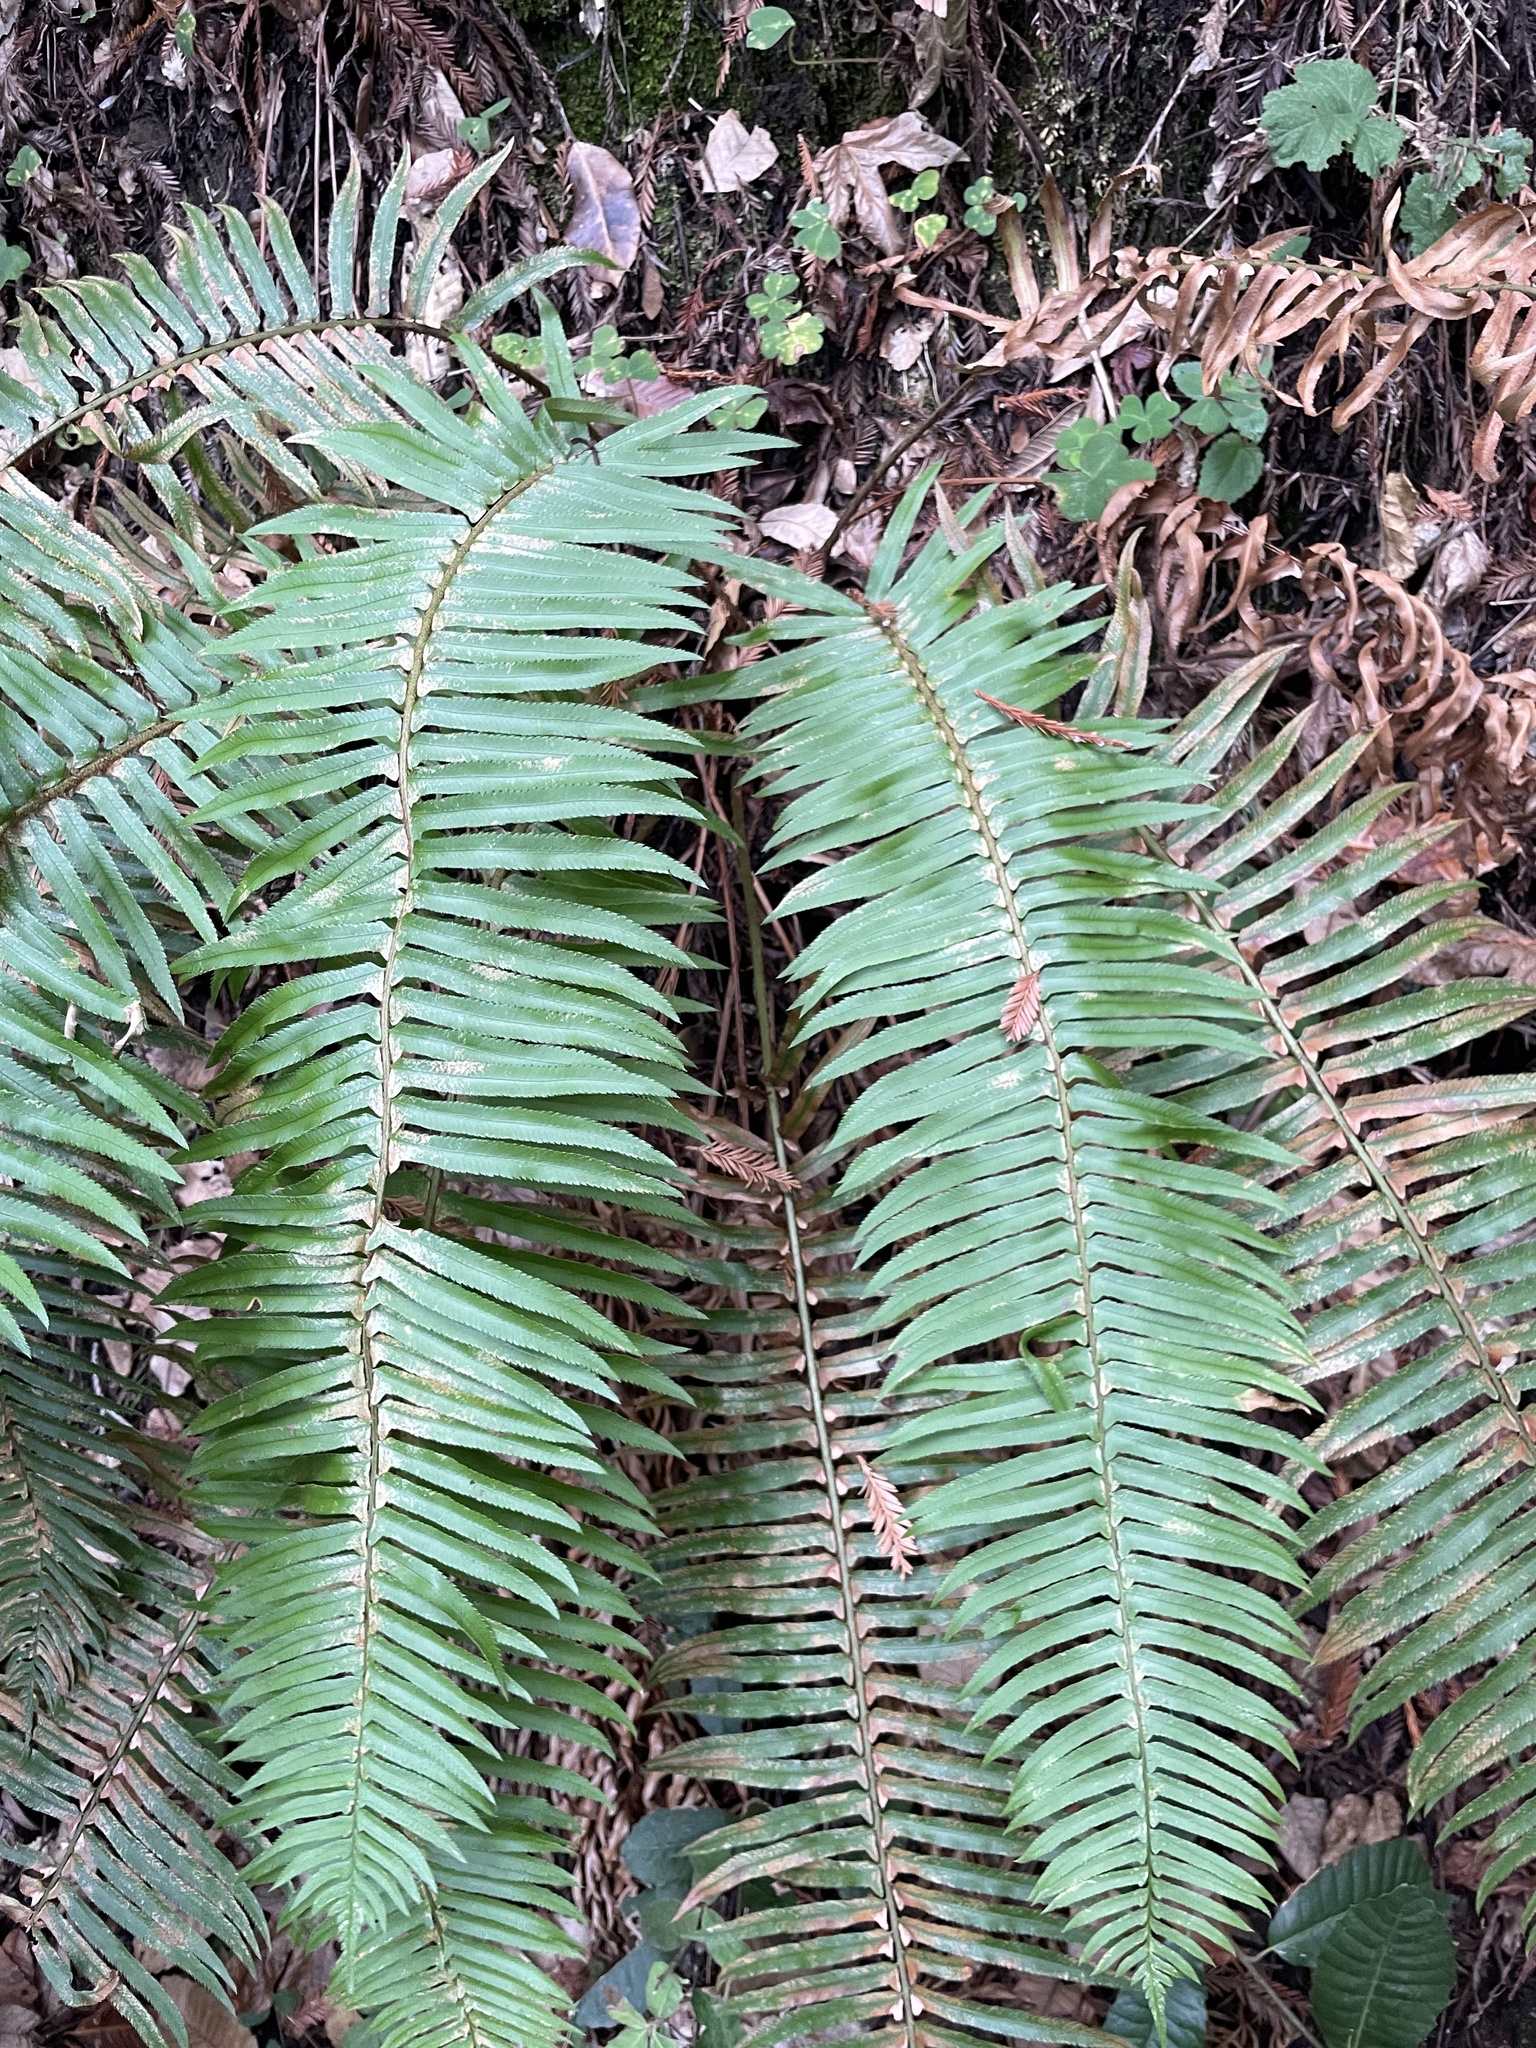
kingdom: Plantae
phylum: Tracheophyta
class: Polypodiopsida
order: Polypodiales
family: Dryopteridaceae
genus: Polystichum
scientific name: Polystichum munitum
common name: Western sword-fern
